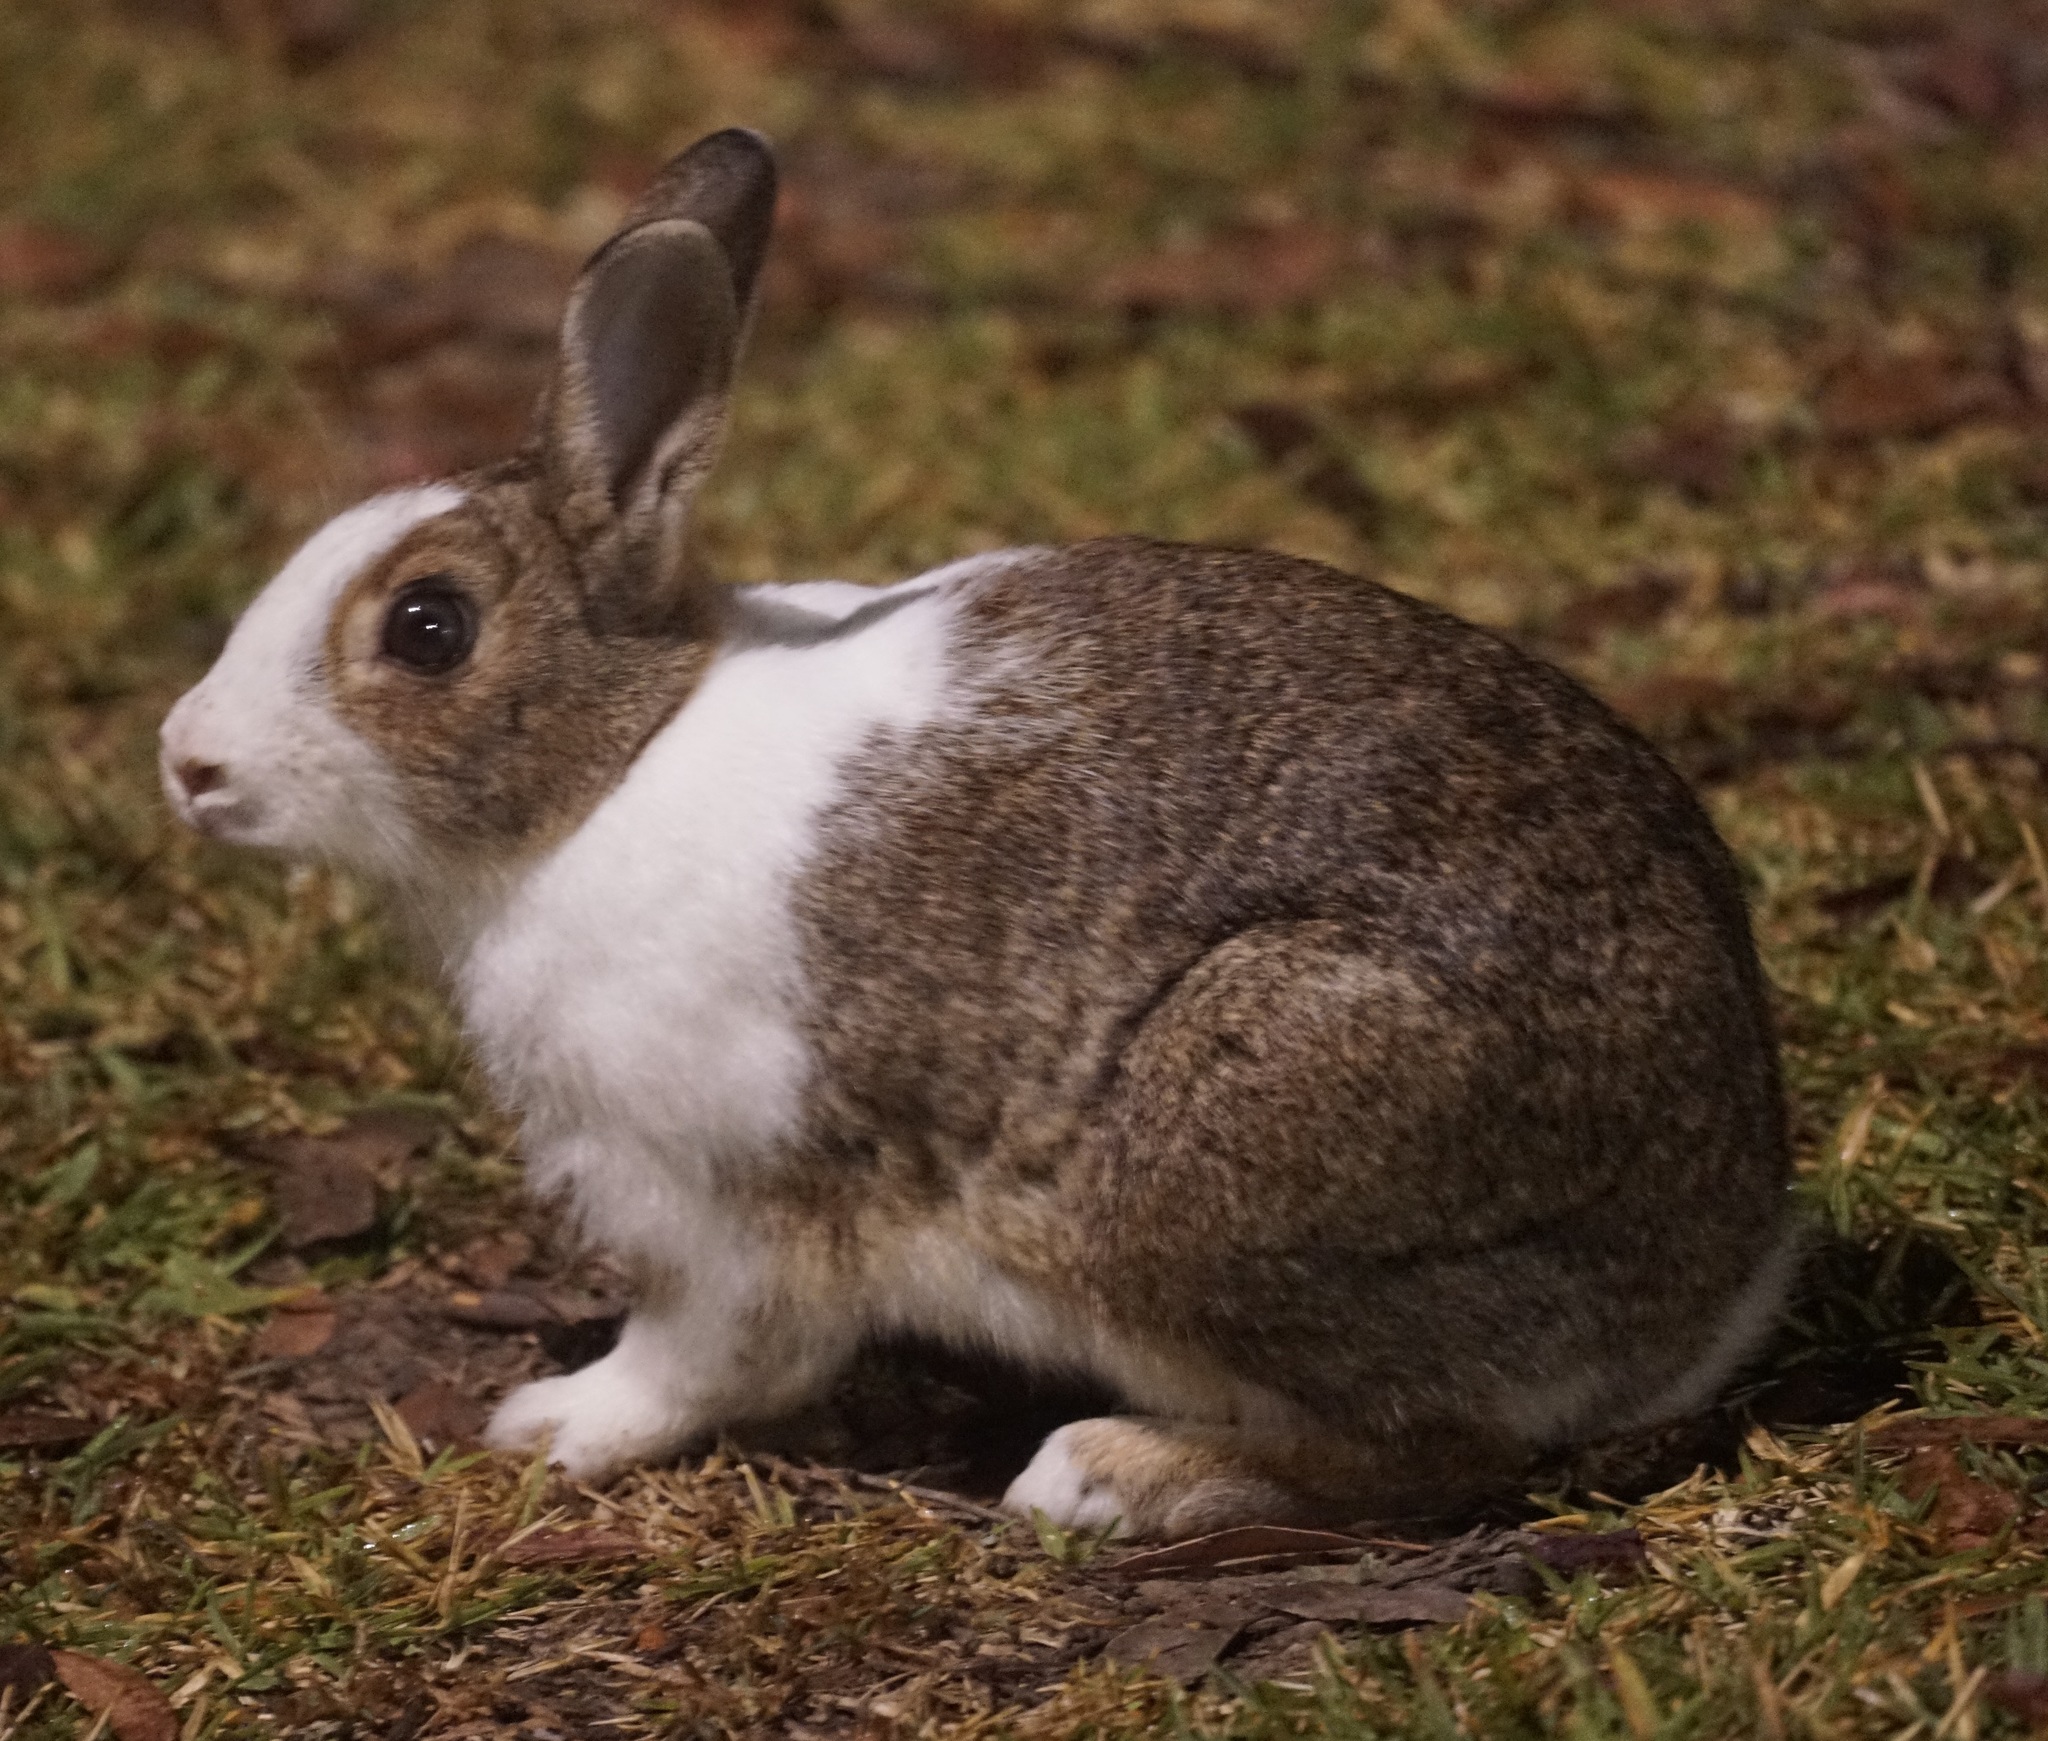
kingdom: Animalia
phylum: Chordata
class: Mammalia
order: Lagomorpha
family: Leporidae
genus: Oryctolagus
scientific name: Oryctolagus cuniculus
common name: European rabbit
